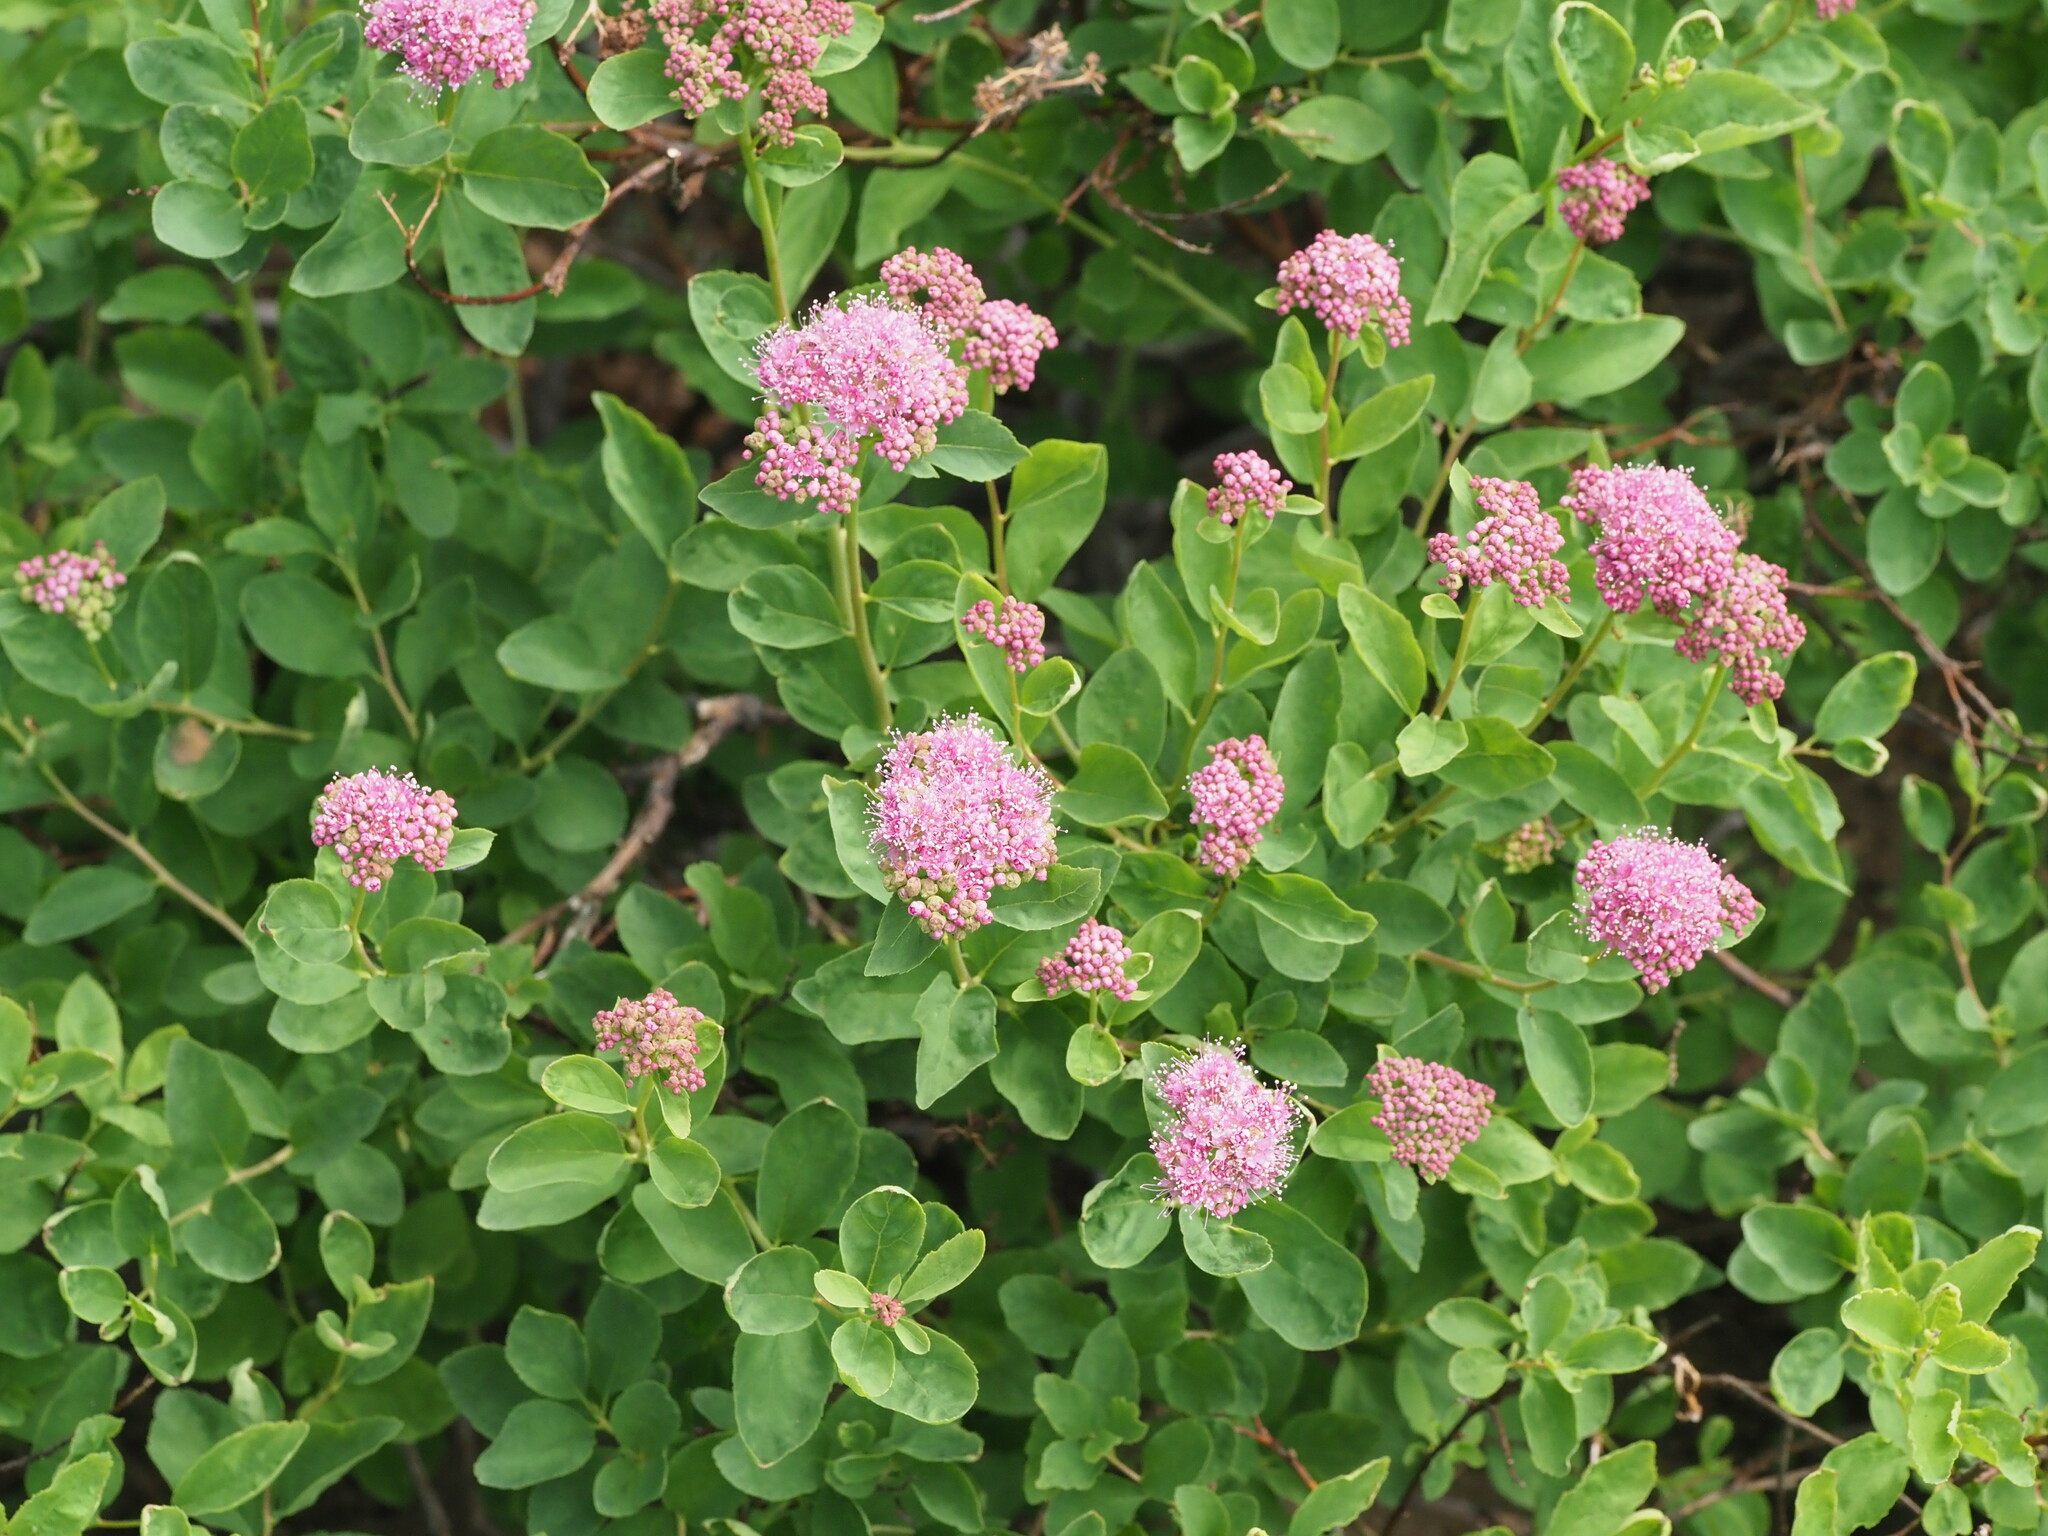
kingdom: Plantae
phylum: Tracheophyta
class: Magnoliopsida
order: Rosales
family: Rosaceae
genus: Spiraea
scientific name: Spiraea splendens
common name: Subalpine meadowsweet
